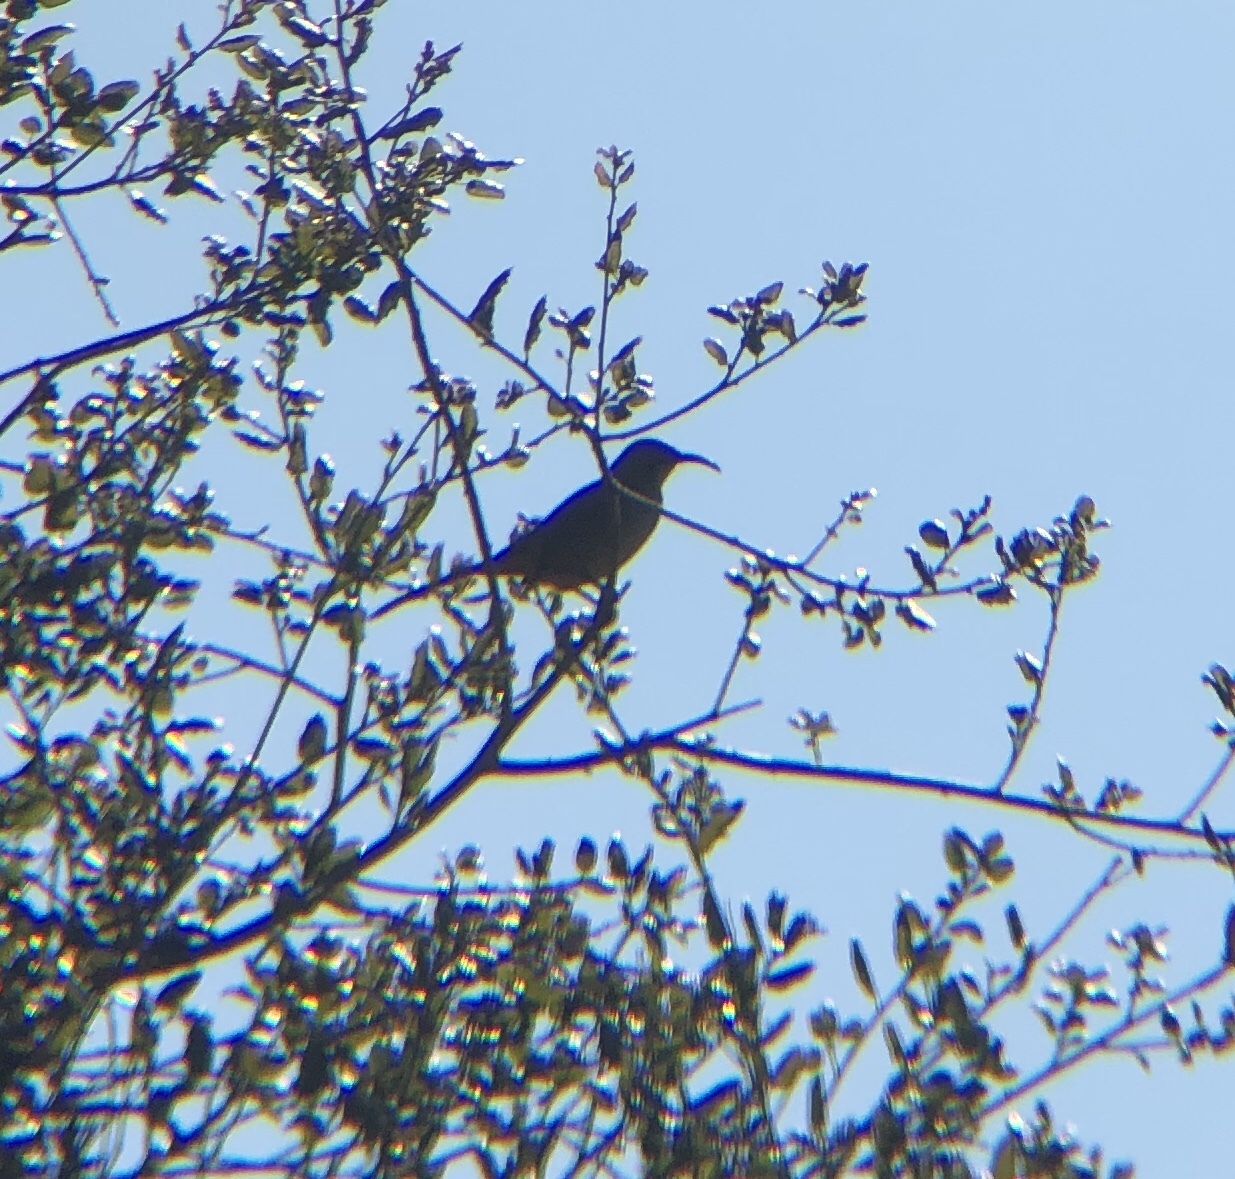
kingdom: Animalia
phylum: Chordata
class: Aves
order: Passeriformes
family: Mimidae
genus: Toxostoma
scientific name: Toxostoma redivivum
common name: California thrasher
